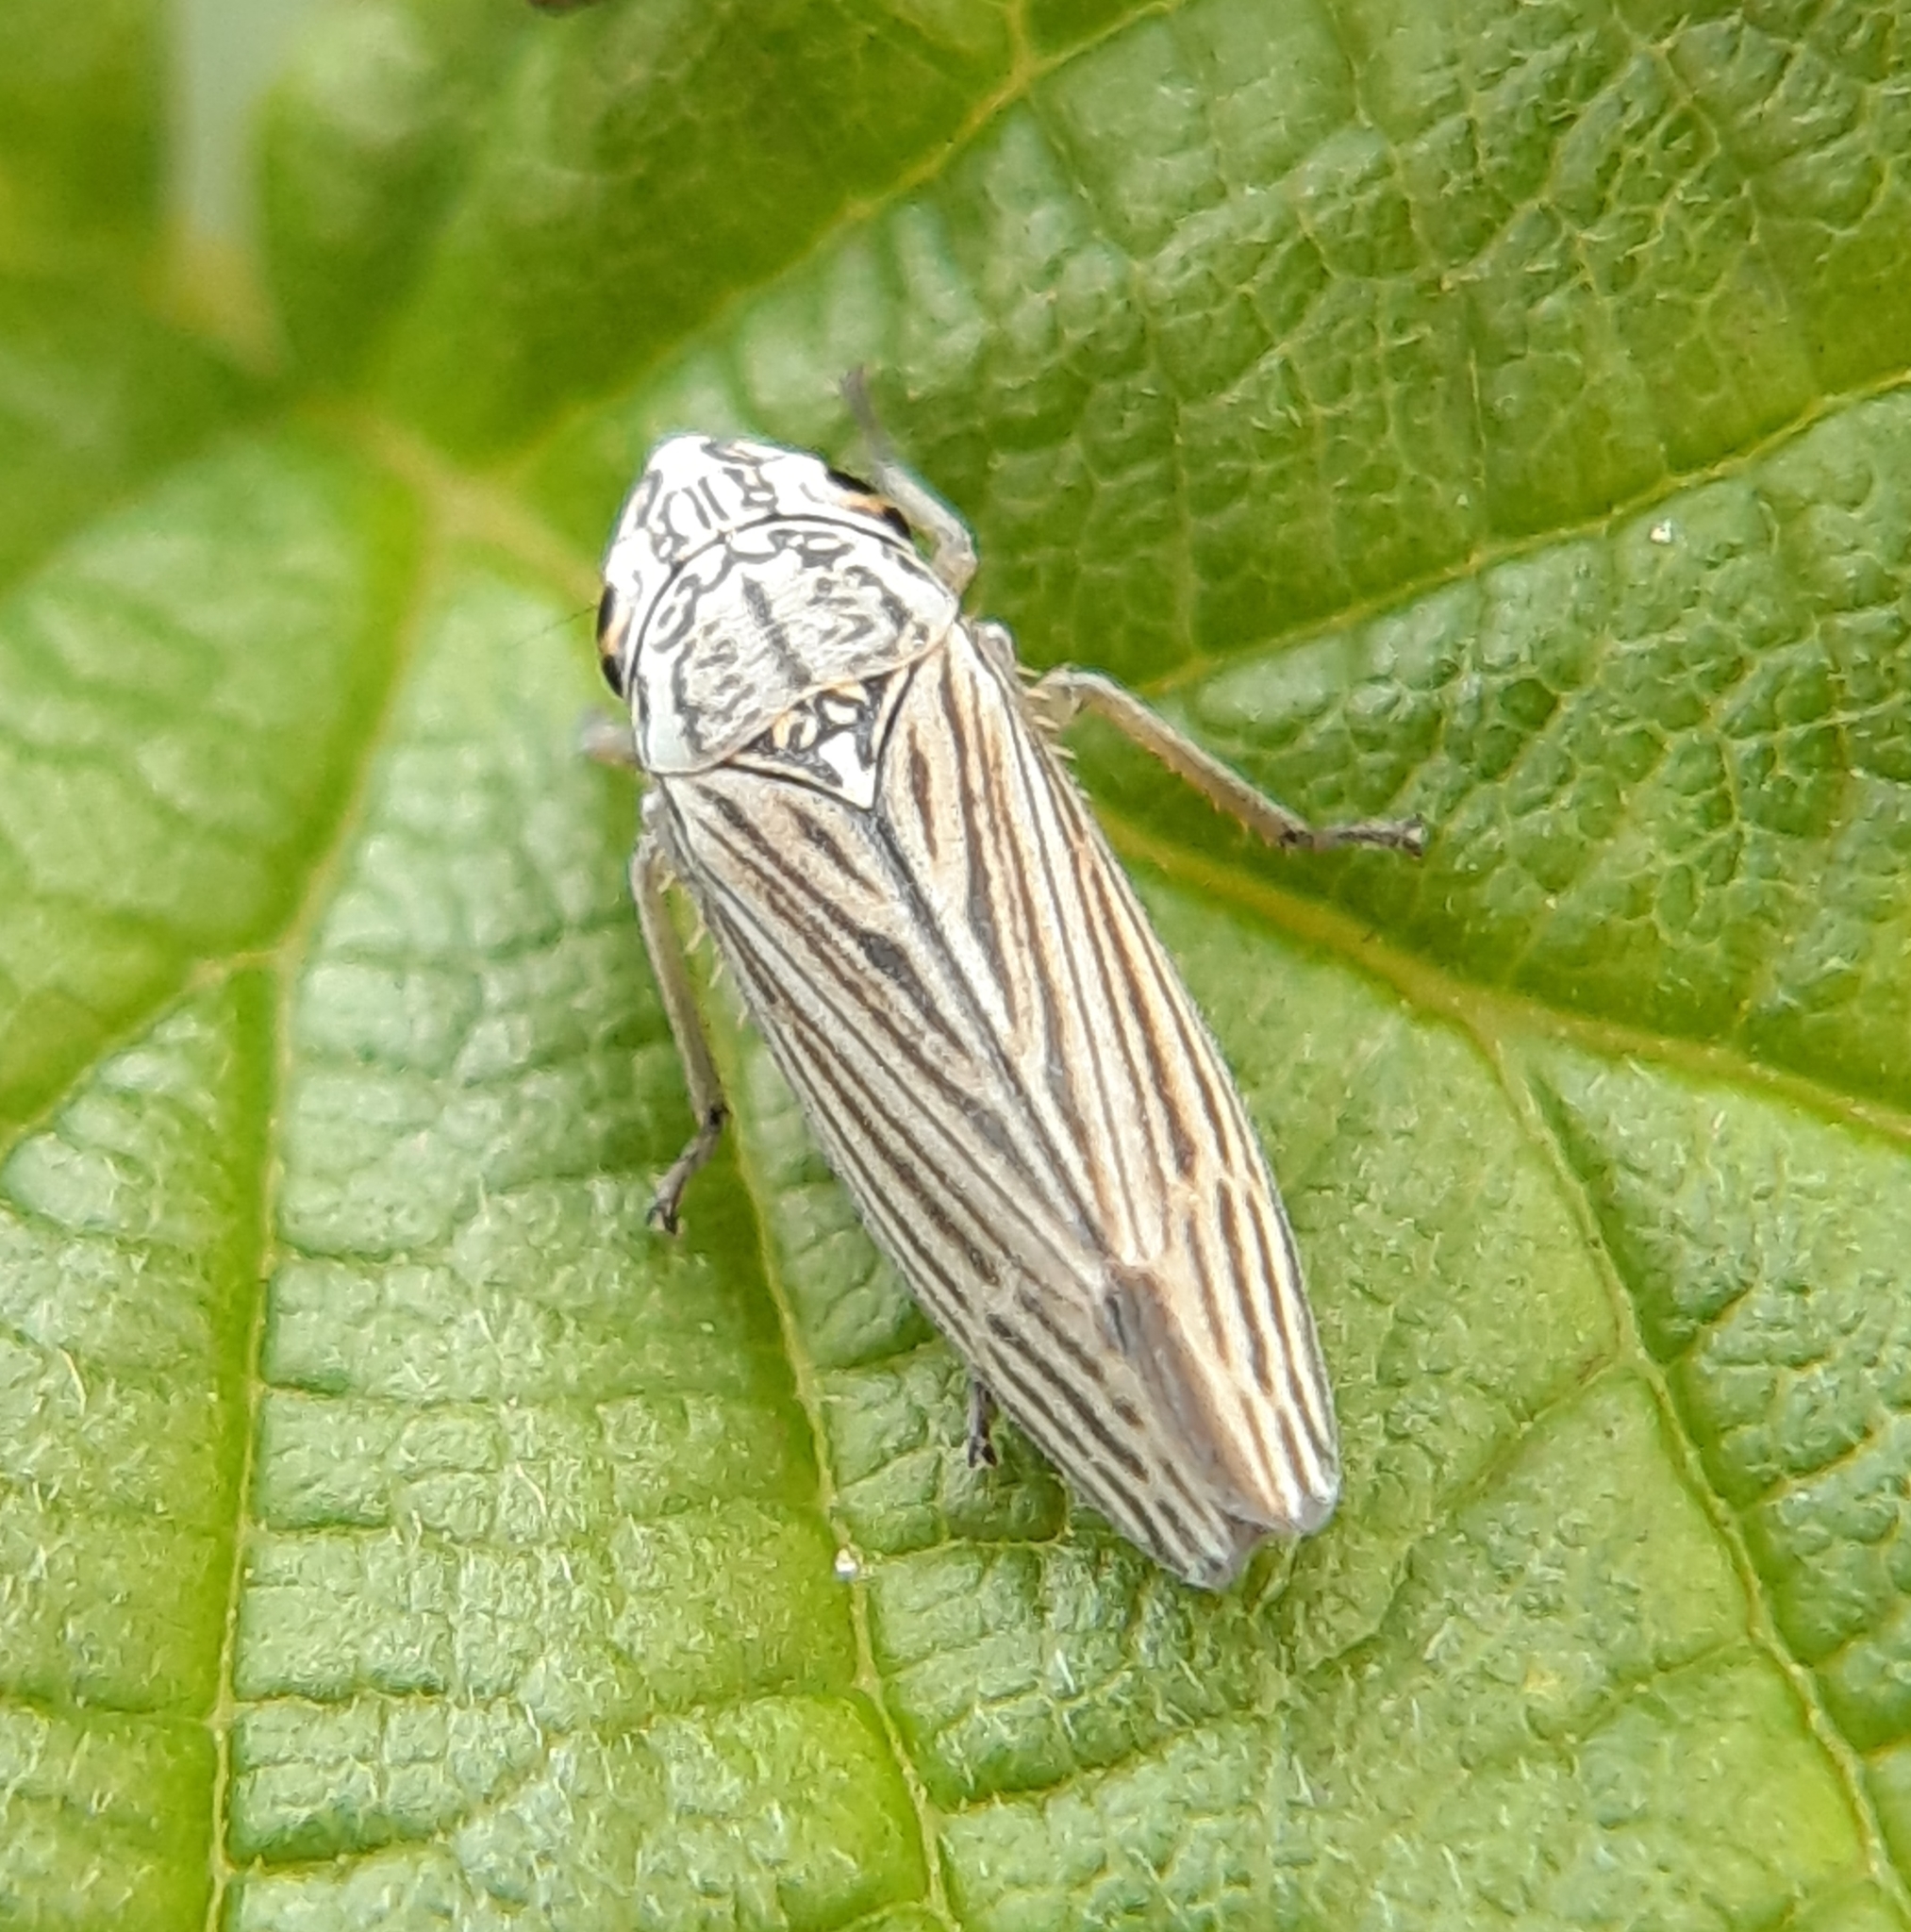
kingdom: Animalia
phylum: Arthropoda
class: Insecta
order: Hemiptera
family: Cicadellidae
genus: Neokolla
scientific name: Neokolla hieroglyphica
